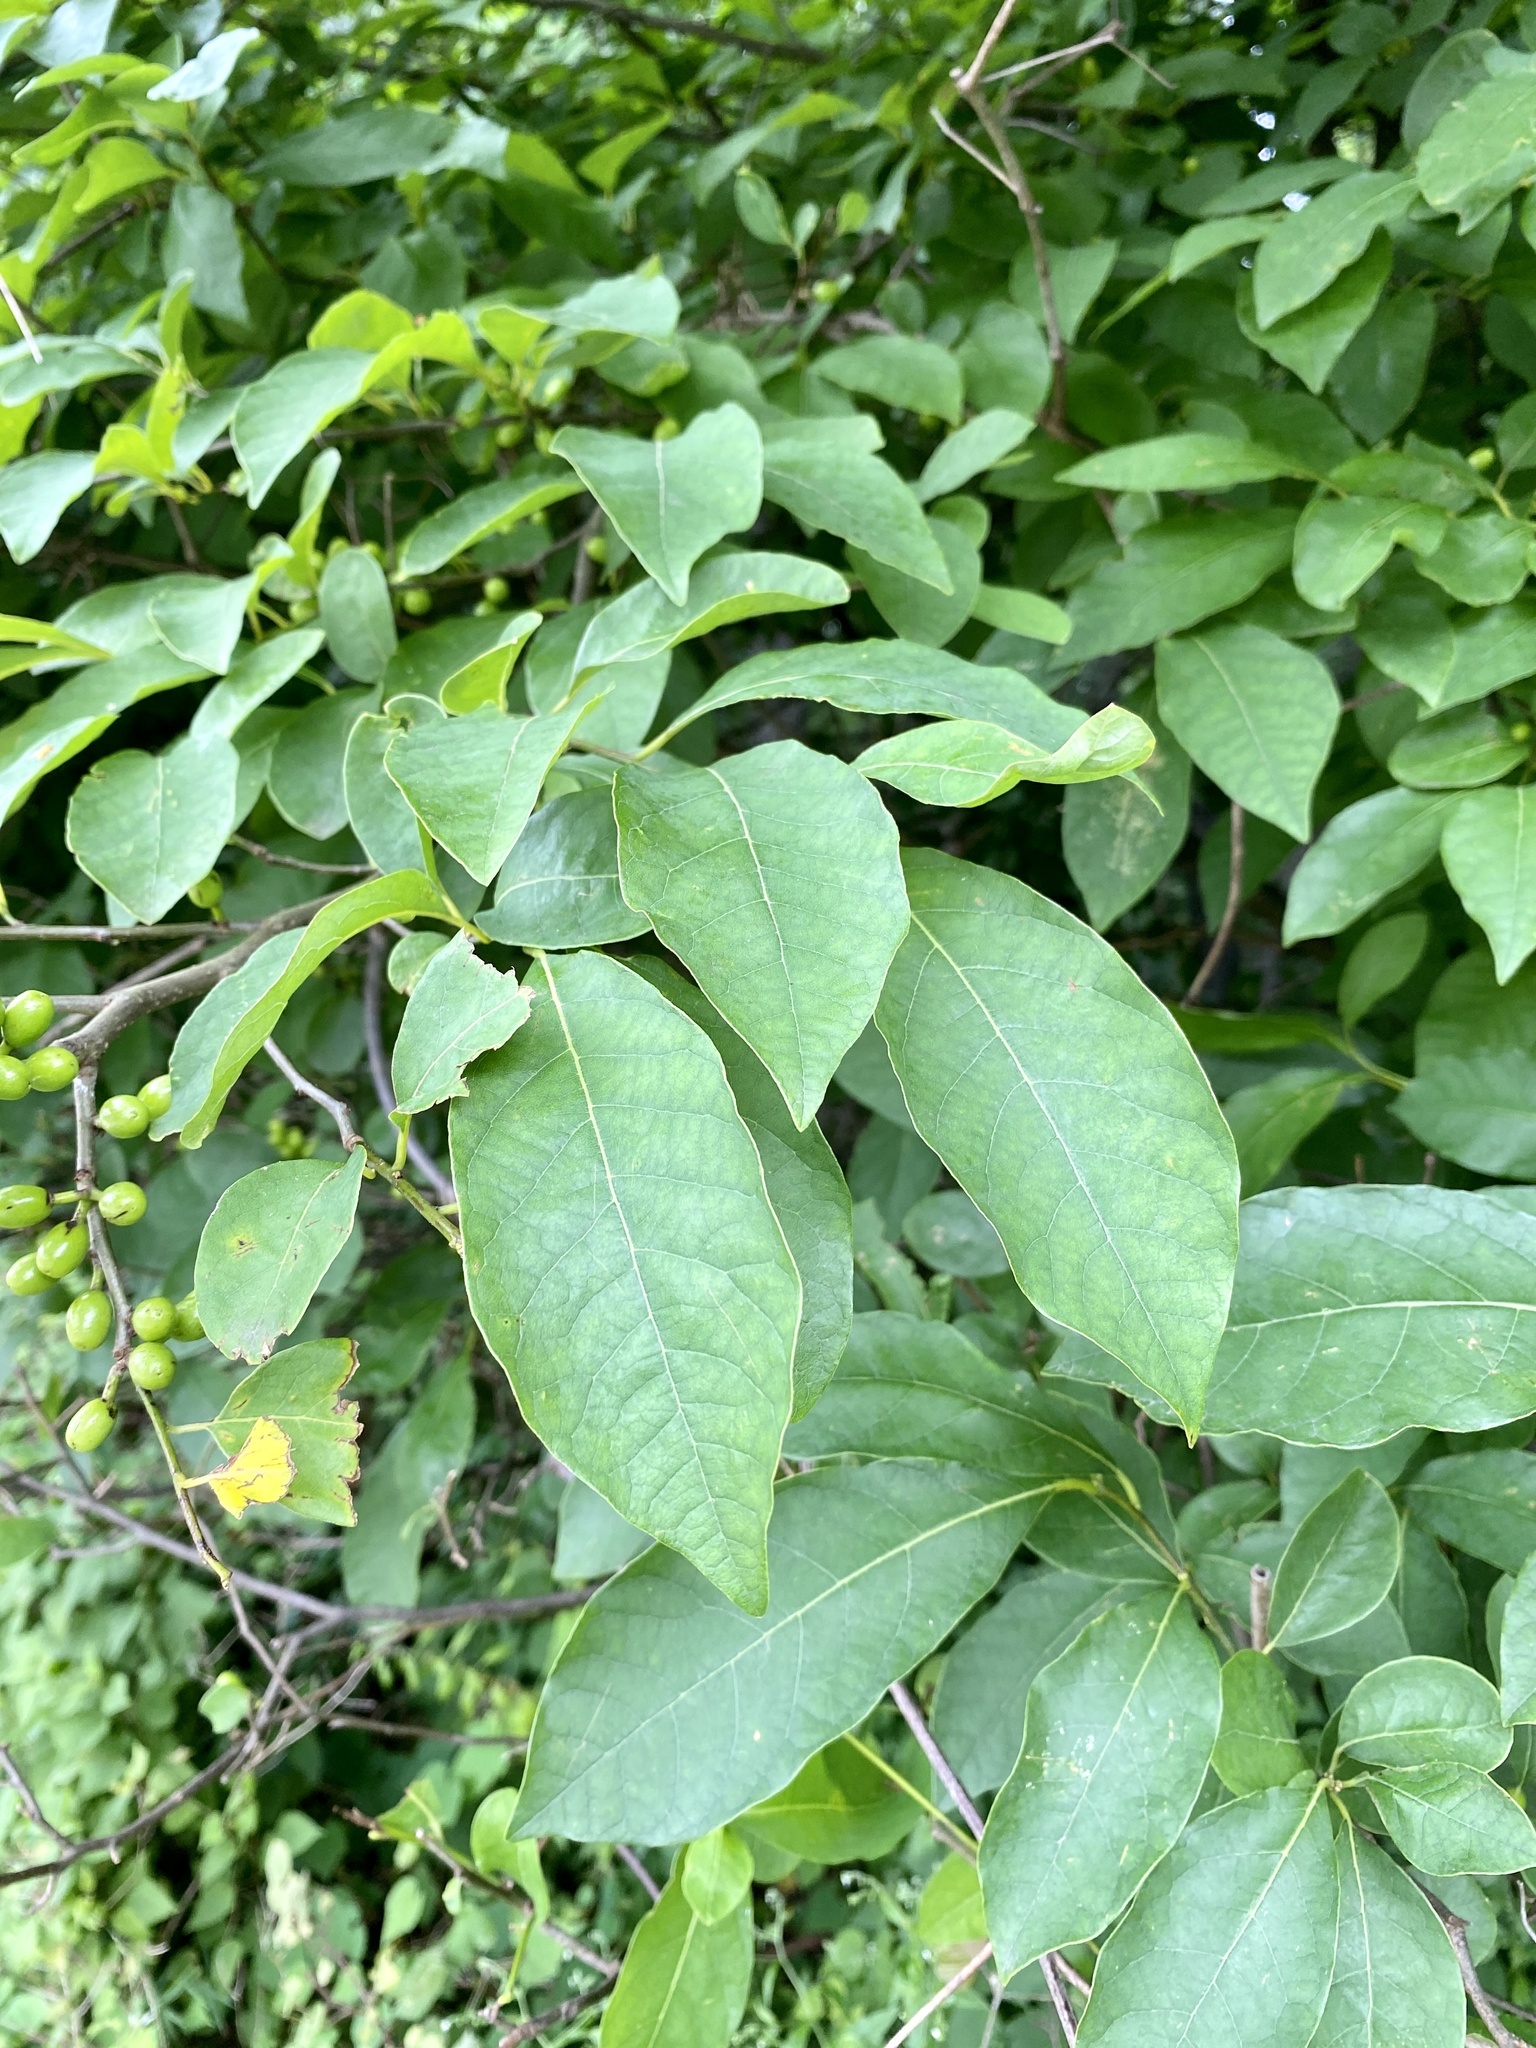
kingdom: Plantae
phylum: Tracheophyta
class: Magnoliopsida
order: Laurales
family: Lauraceae
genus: Lindera
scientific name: Lindera benzoin
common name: Spicebush
